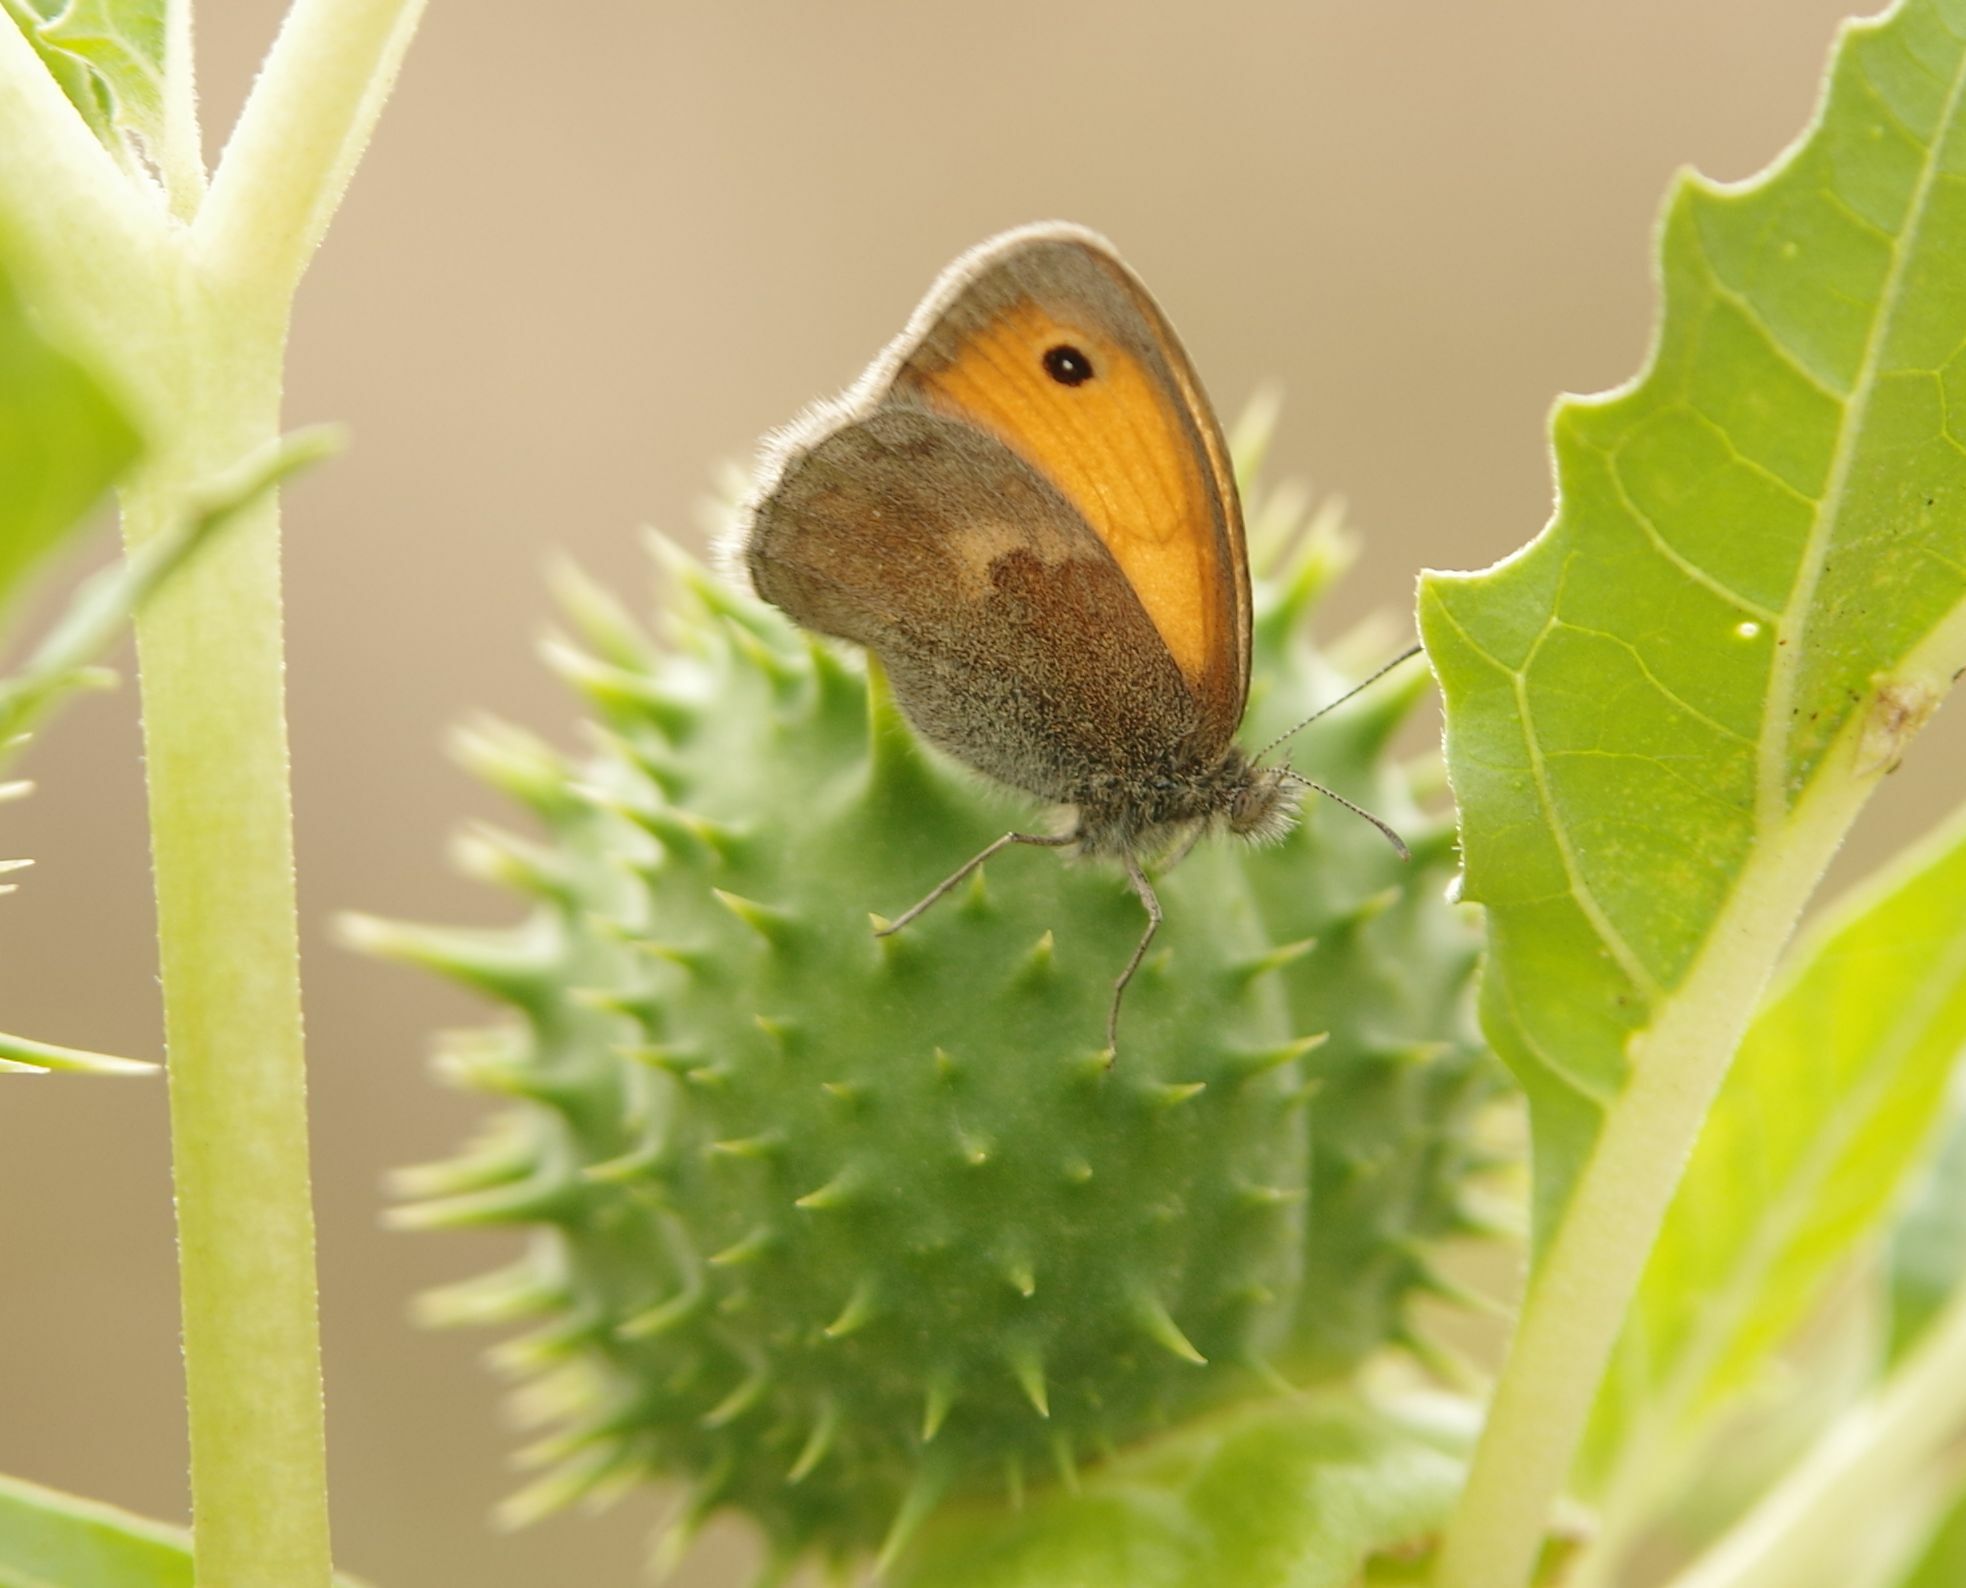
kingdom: Animalia
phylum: Arthropoda
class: Insecta
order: Lepidoptera
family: Nymphalidae
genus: Coenonympha
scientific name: Coenonympha pamphilus
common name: Small heath
